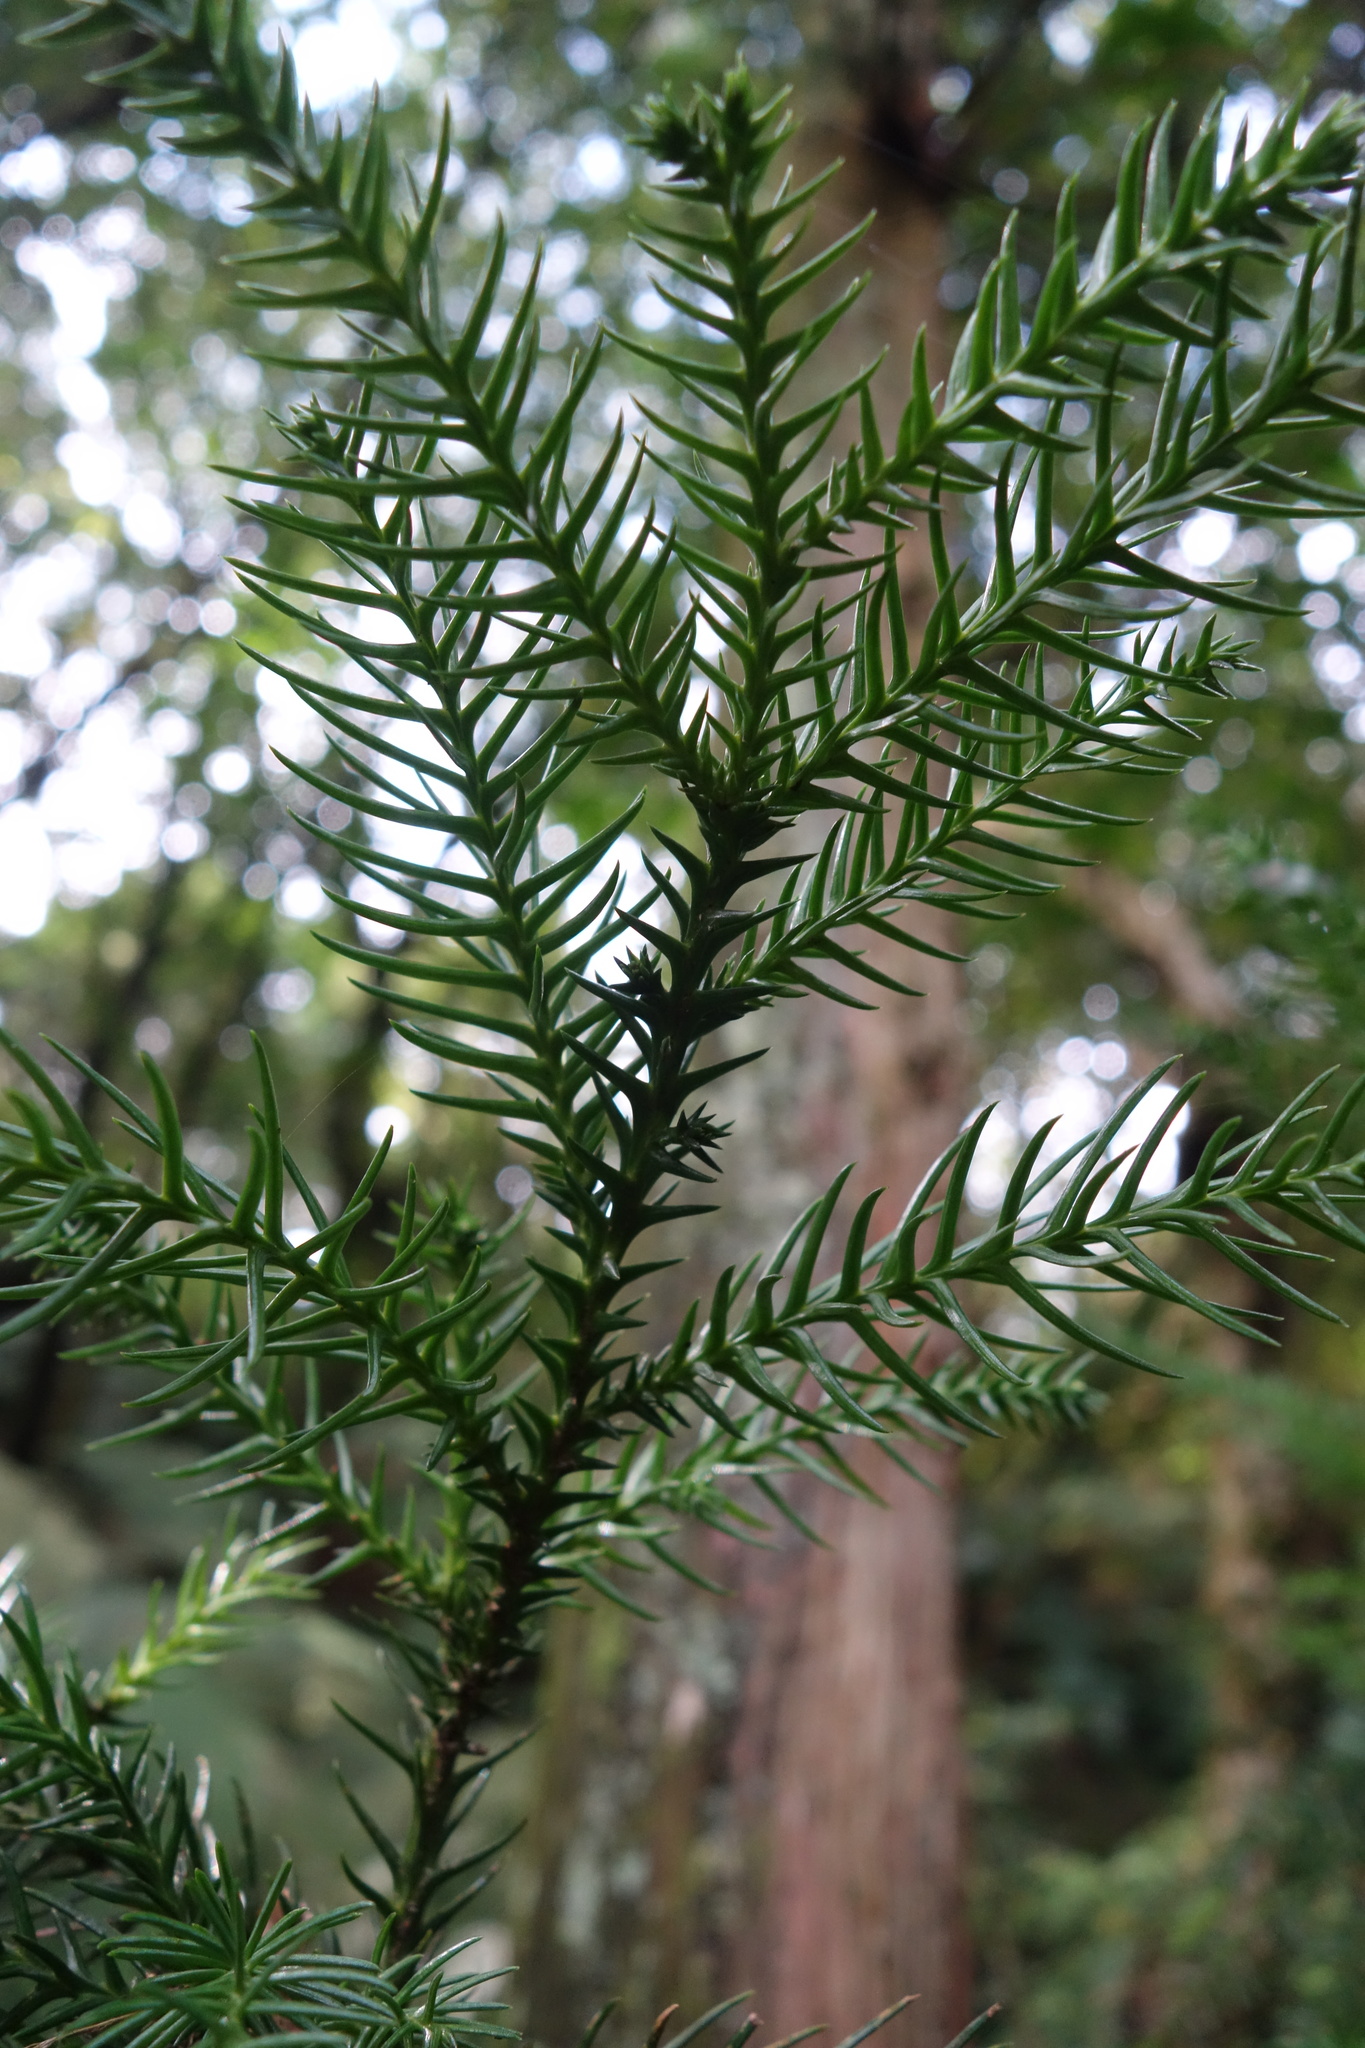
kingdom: Plantae
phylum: Tracheophyta
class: Pinopsida
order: Pinales
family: Cupressaceae
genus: Cryptomeria
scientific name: Cryptomeria japonica
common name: Japanese cedar
